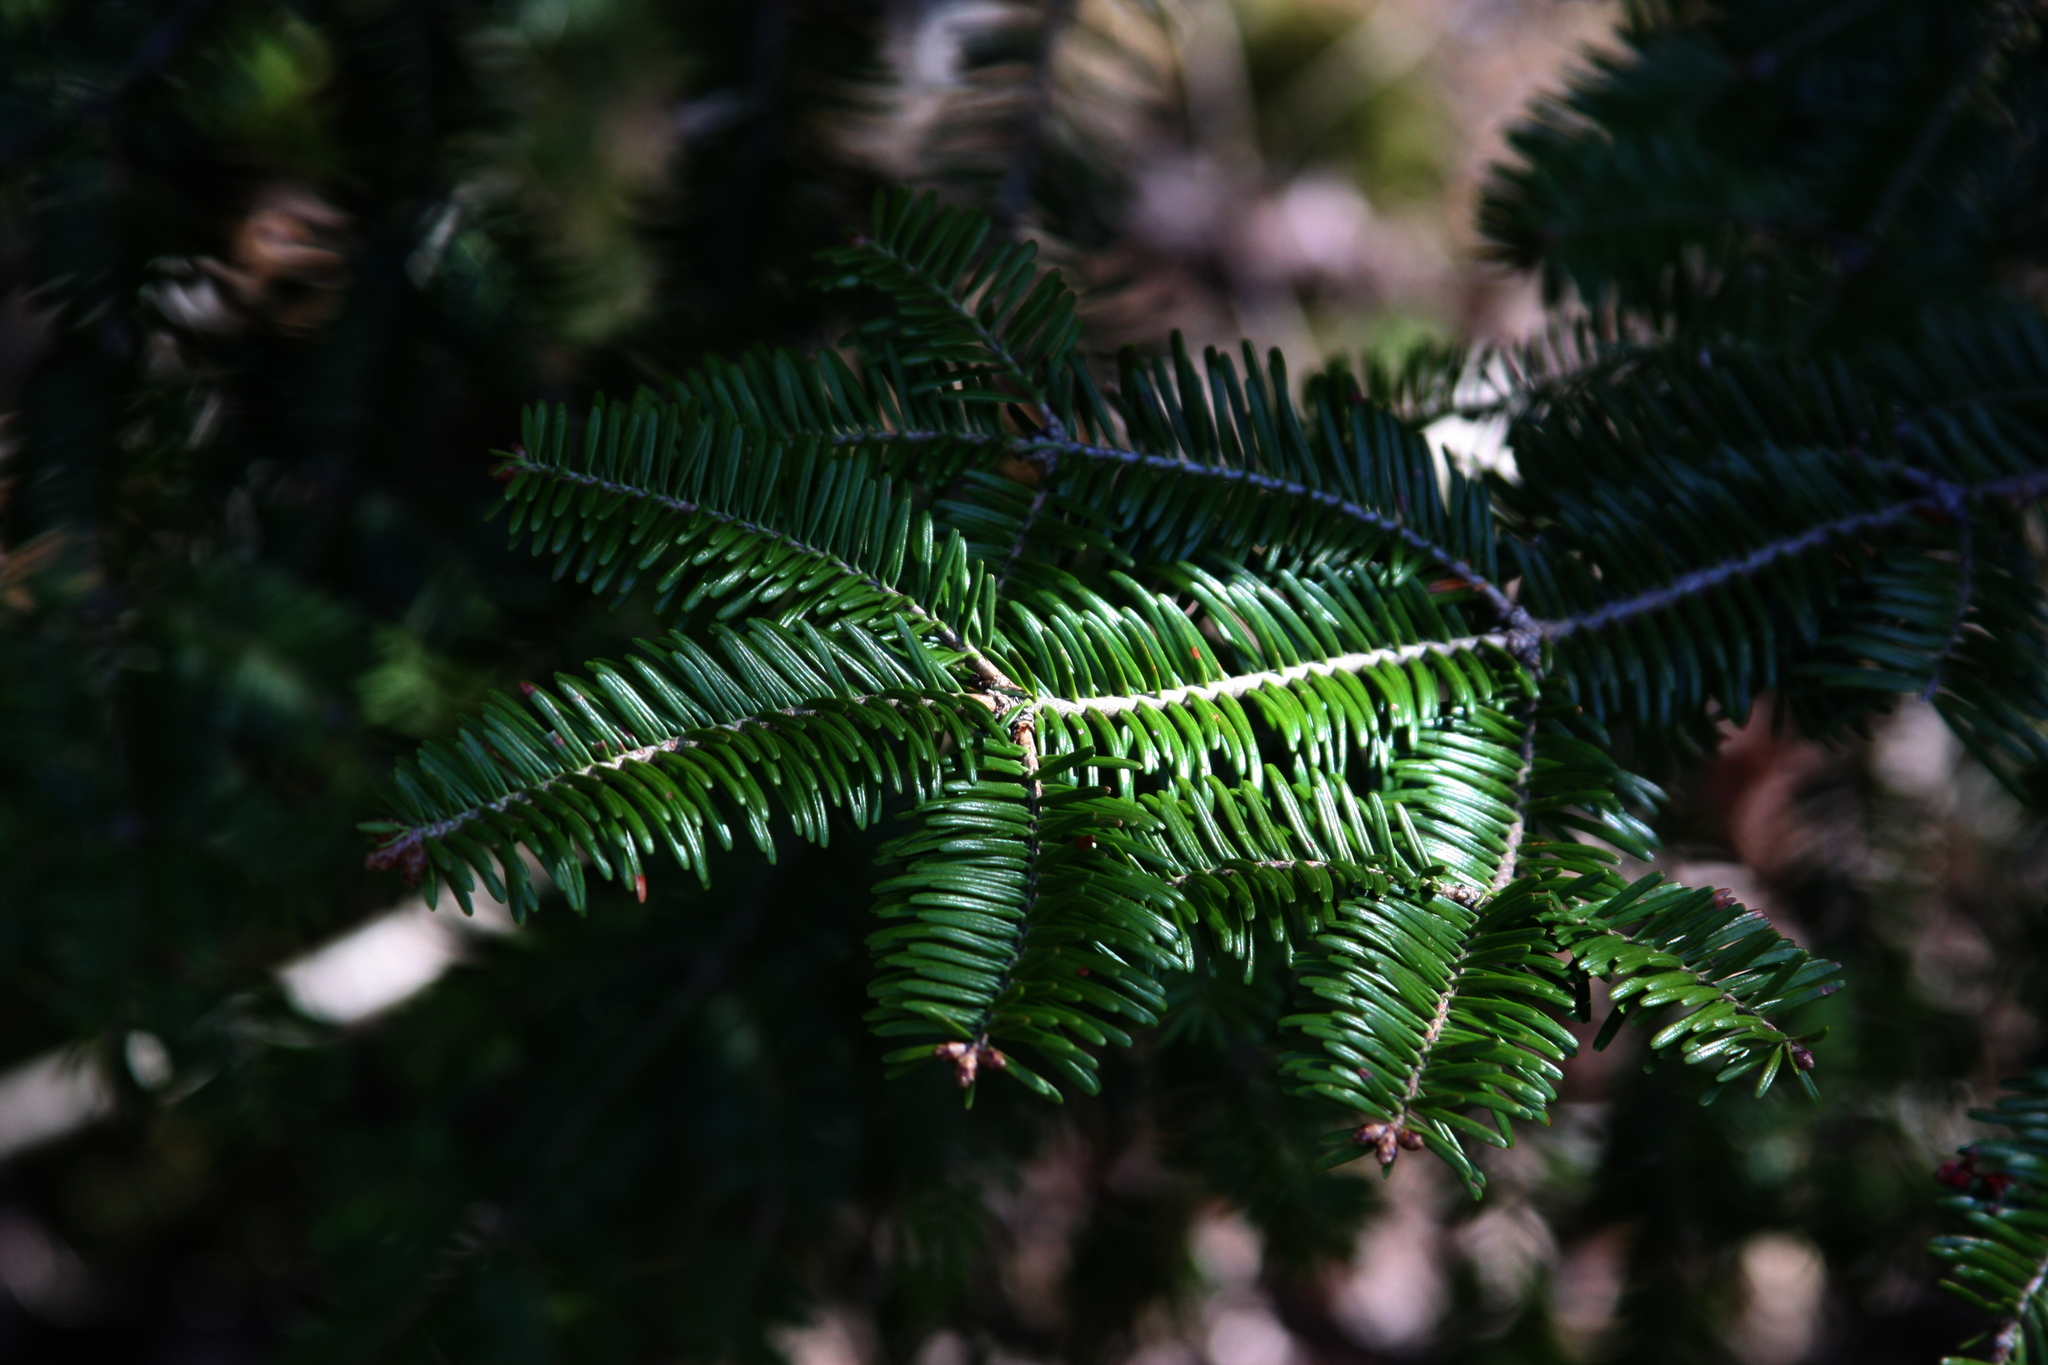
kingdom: Plantae
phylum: Tracheophyta
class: Pinopsida
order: Pinales
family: Pinaceae
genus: Abies
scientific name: Abies balsamea
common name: Balsam fir
